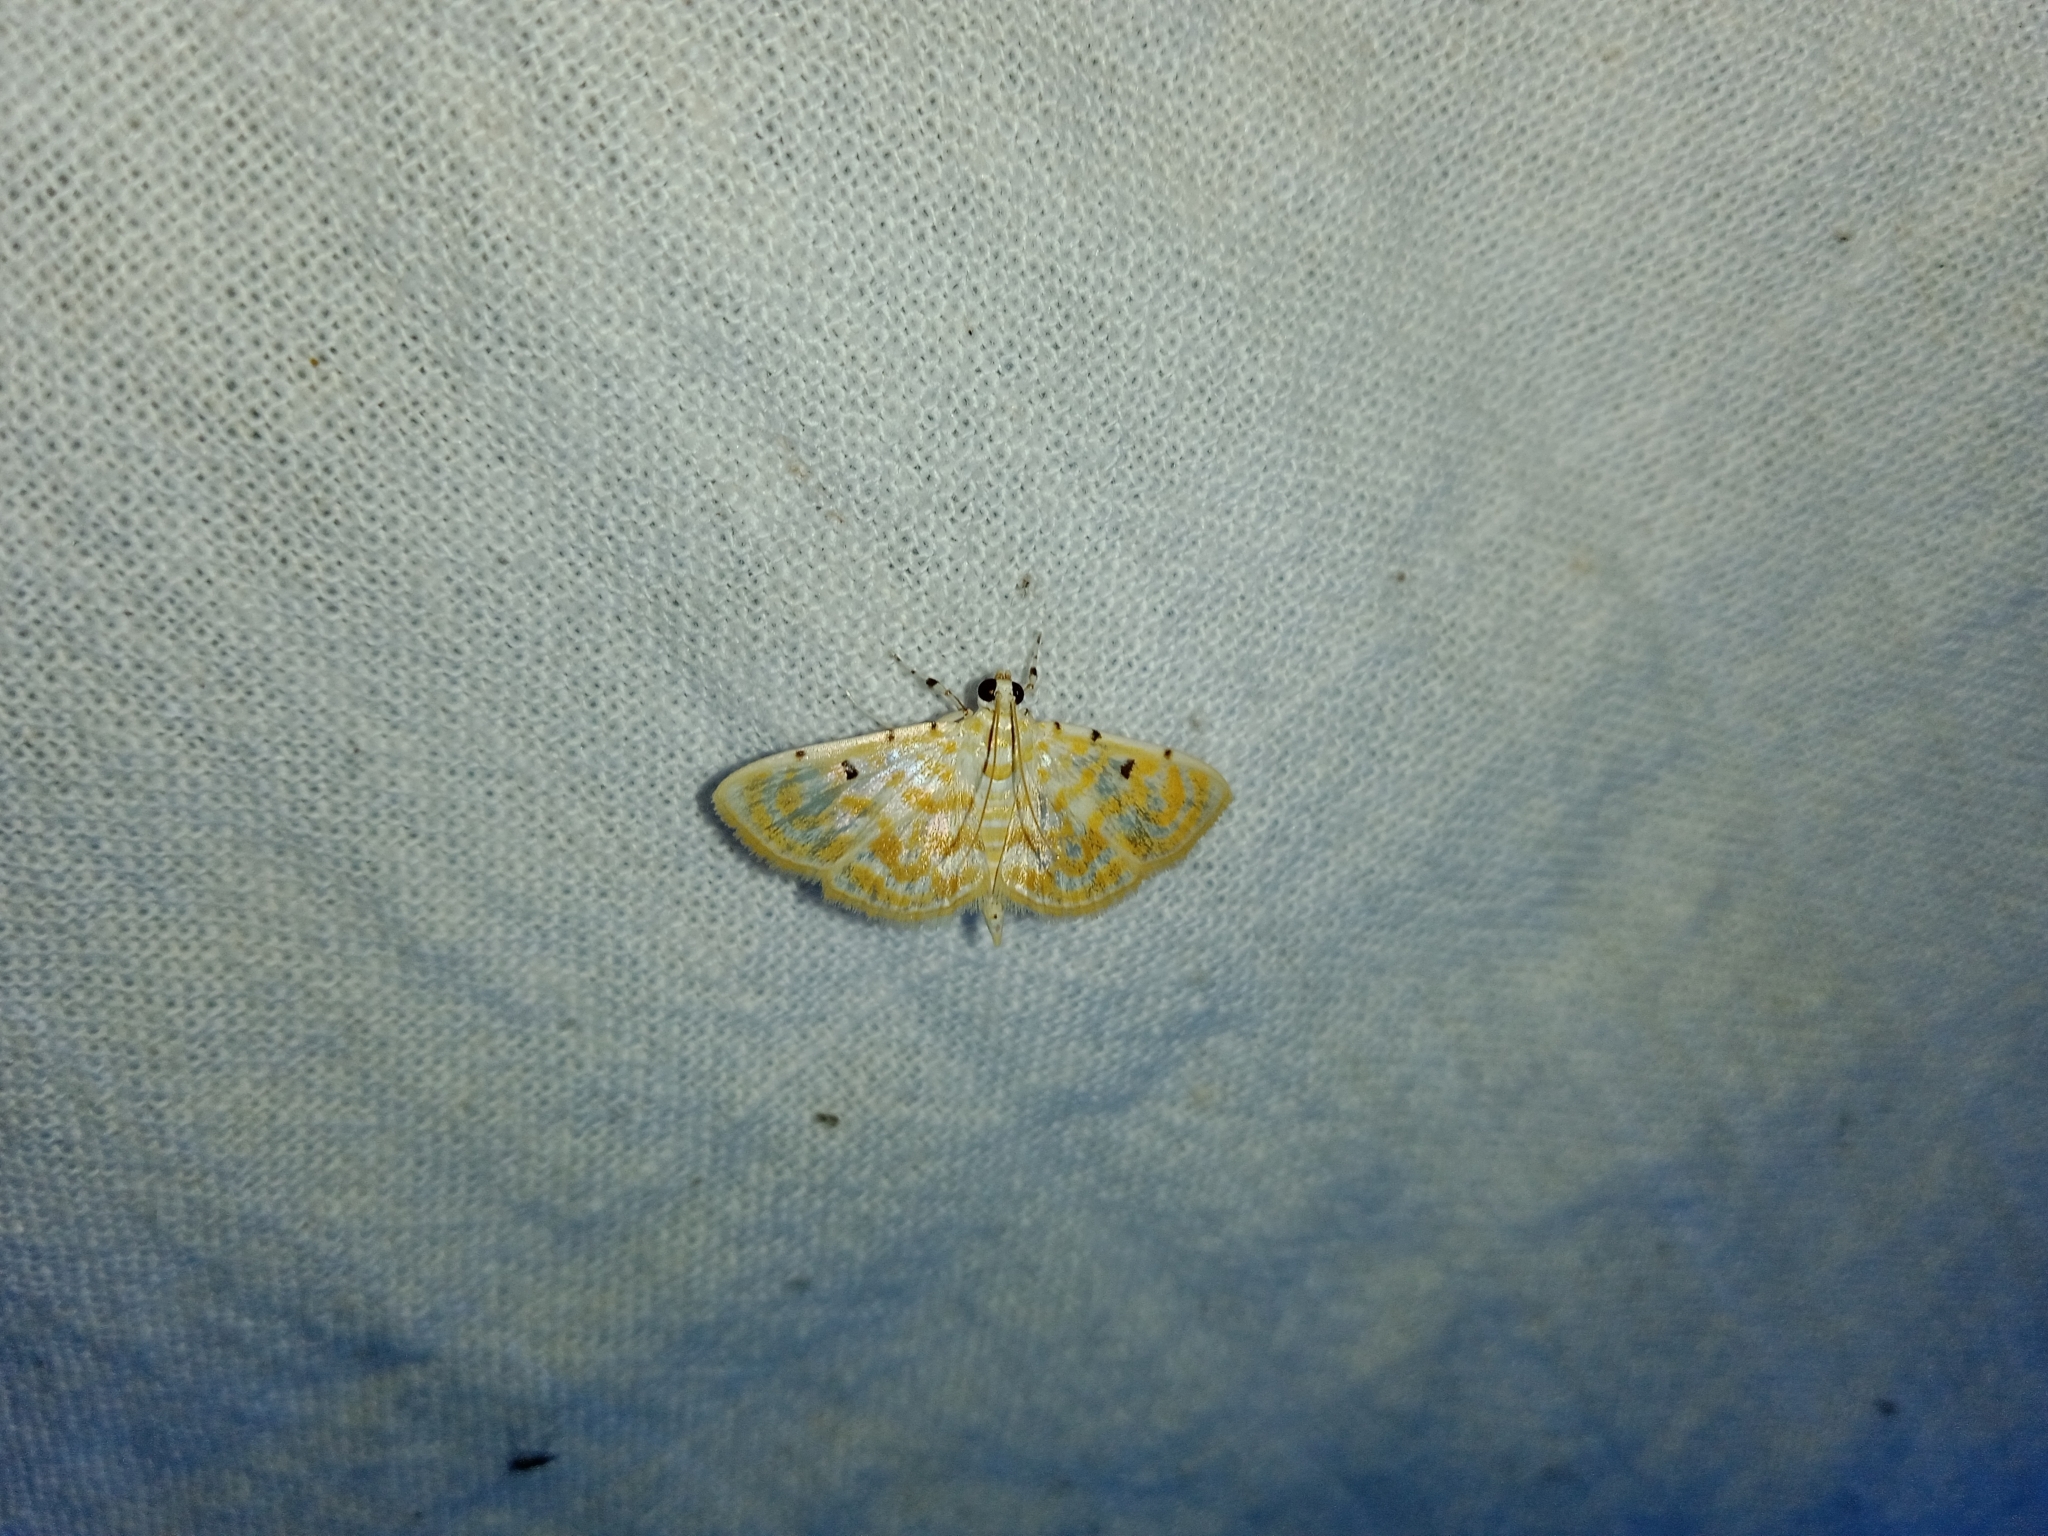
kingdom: Animalia
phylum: Arthropoda
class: Insecta
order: Lepidoptera
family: Crambidae
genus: Notarcha
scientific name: Notarcha aurolinealis
